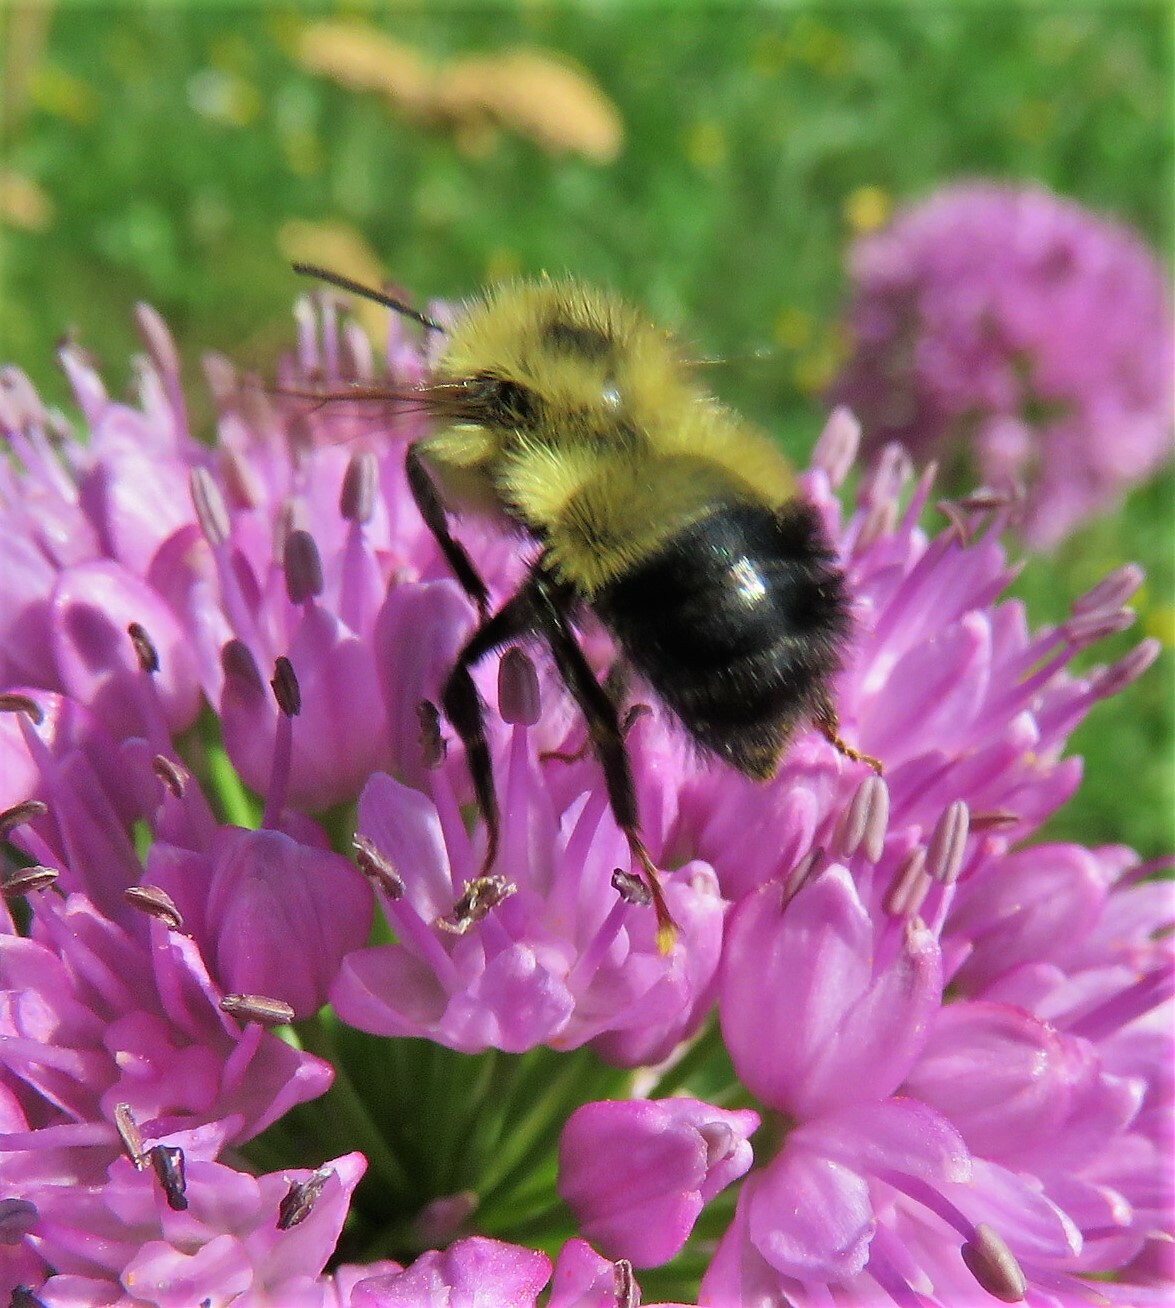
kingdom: Animalia
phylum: Arthropoda
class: Insecta
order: Hymenoptera
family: Apidae
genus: Pyrobombus
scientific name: Pyrobombus
